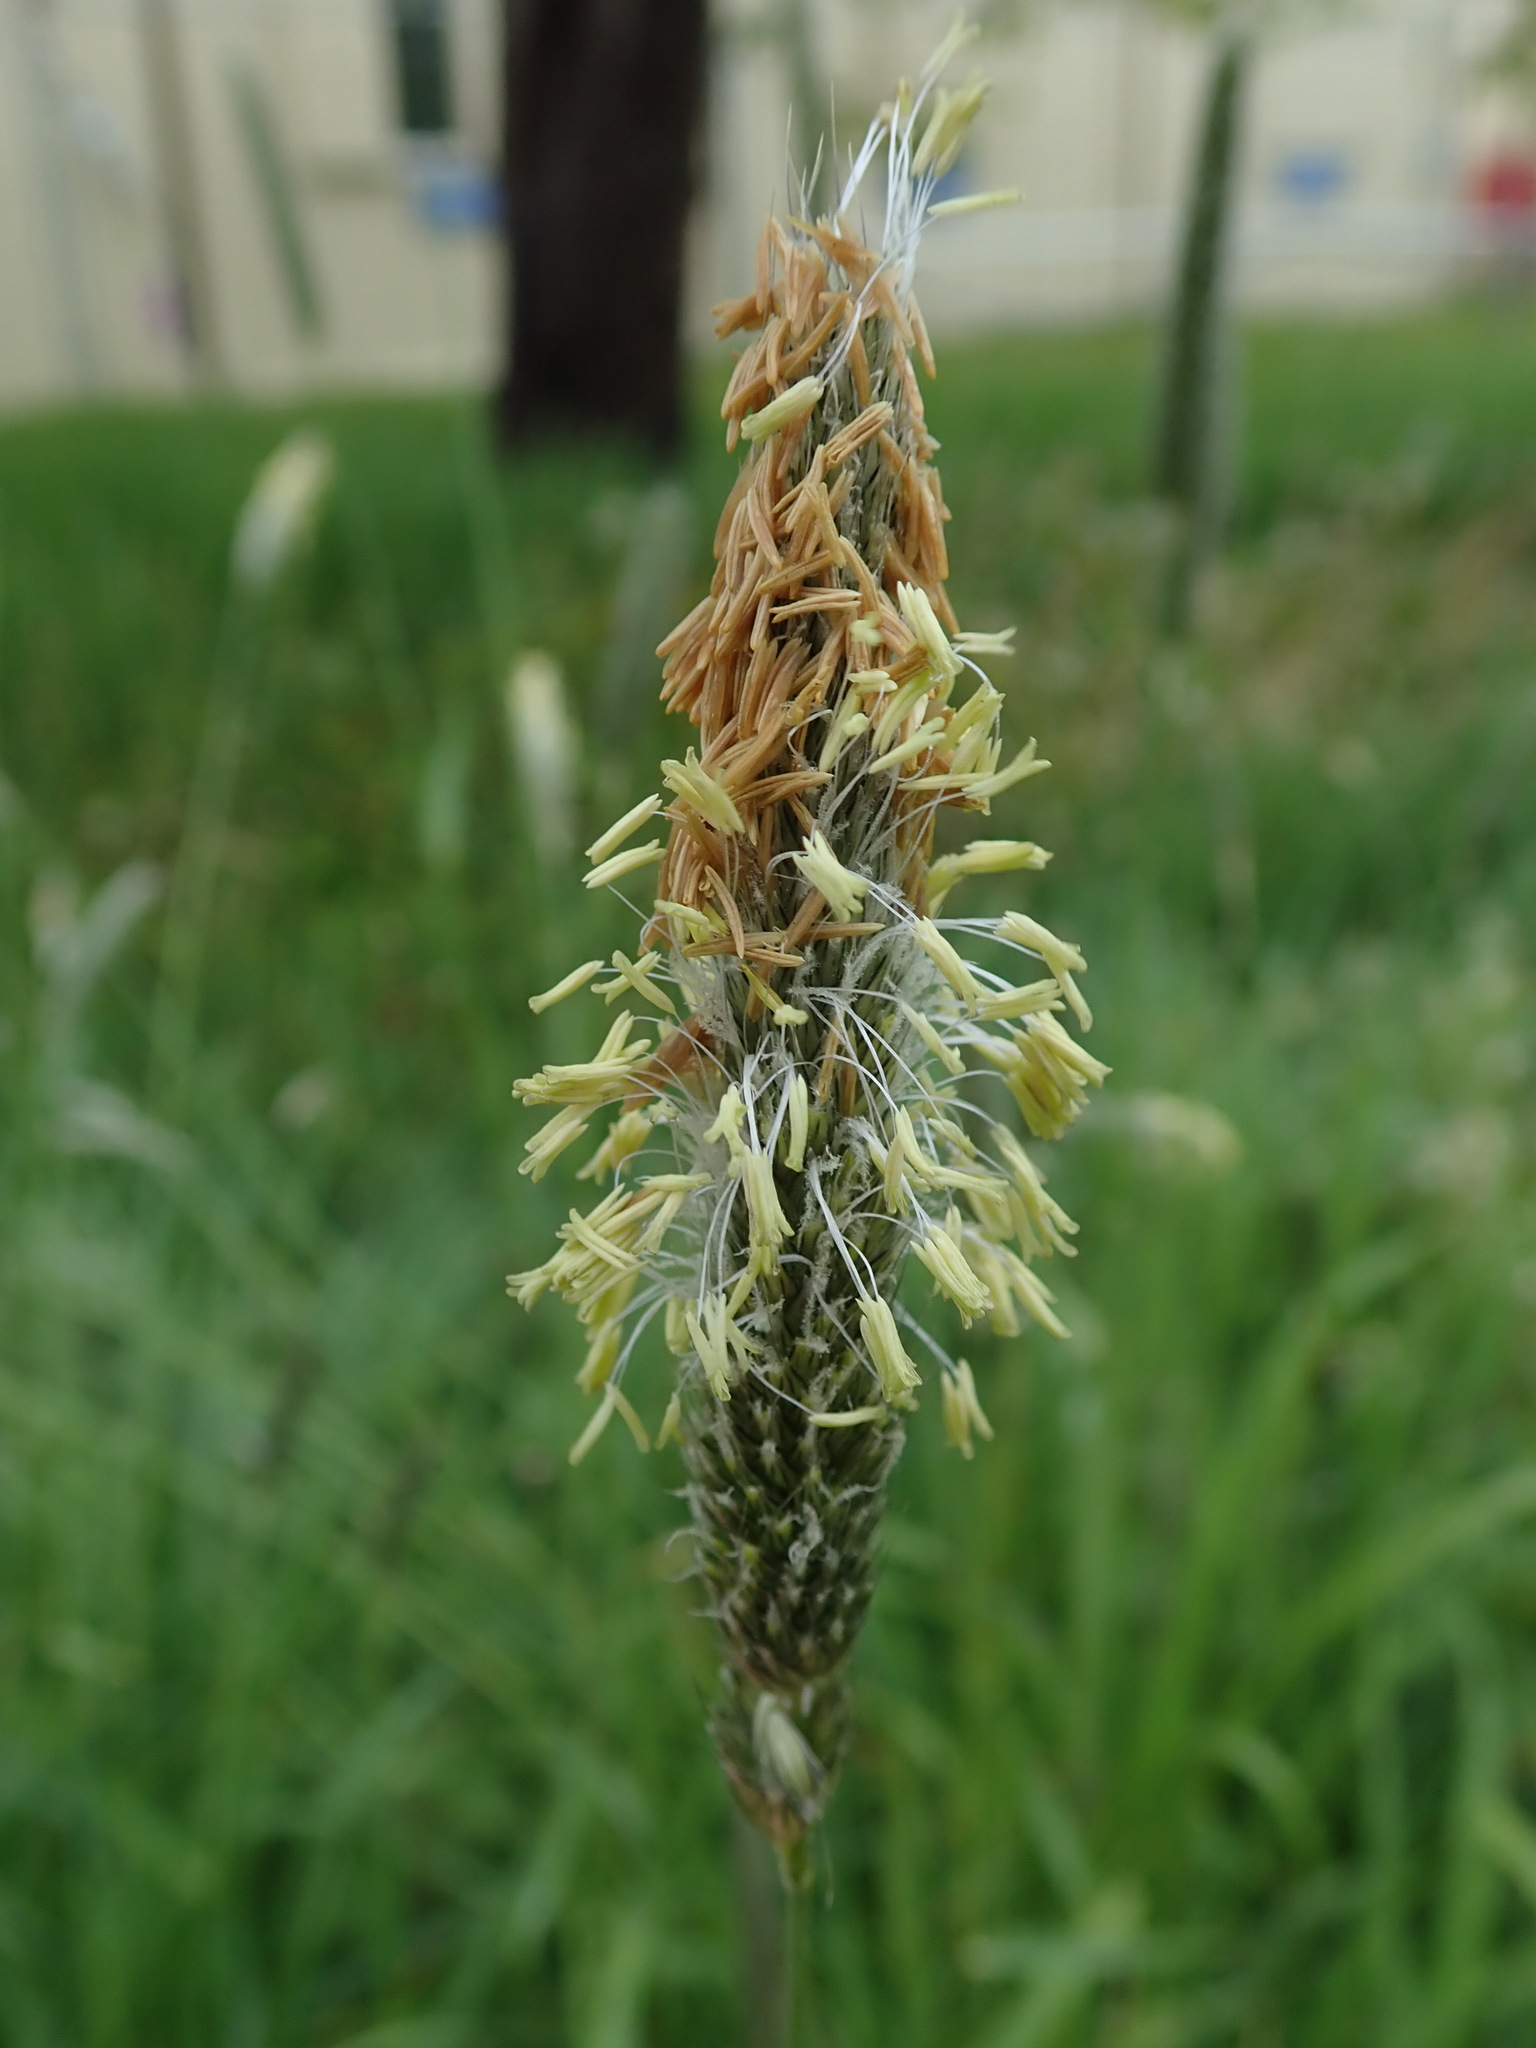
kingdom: Plantae
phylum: Tracheophyta
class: Liliopsida
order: Poales
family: Poaceae
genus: Alopecurus
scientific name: Alopecurus pratensis
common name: Meadow foxtail
